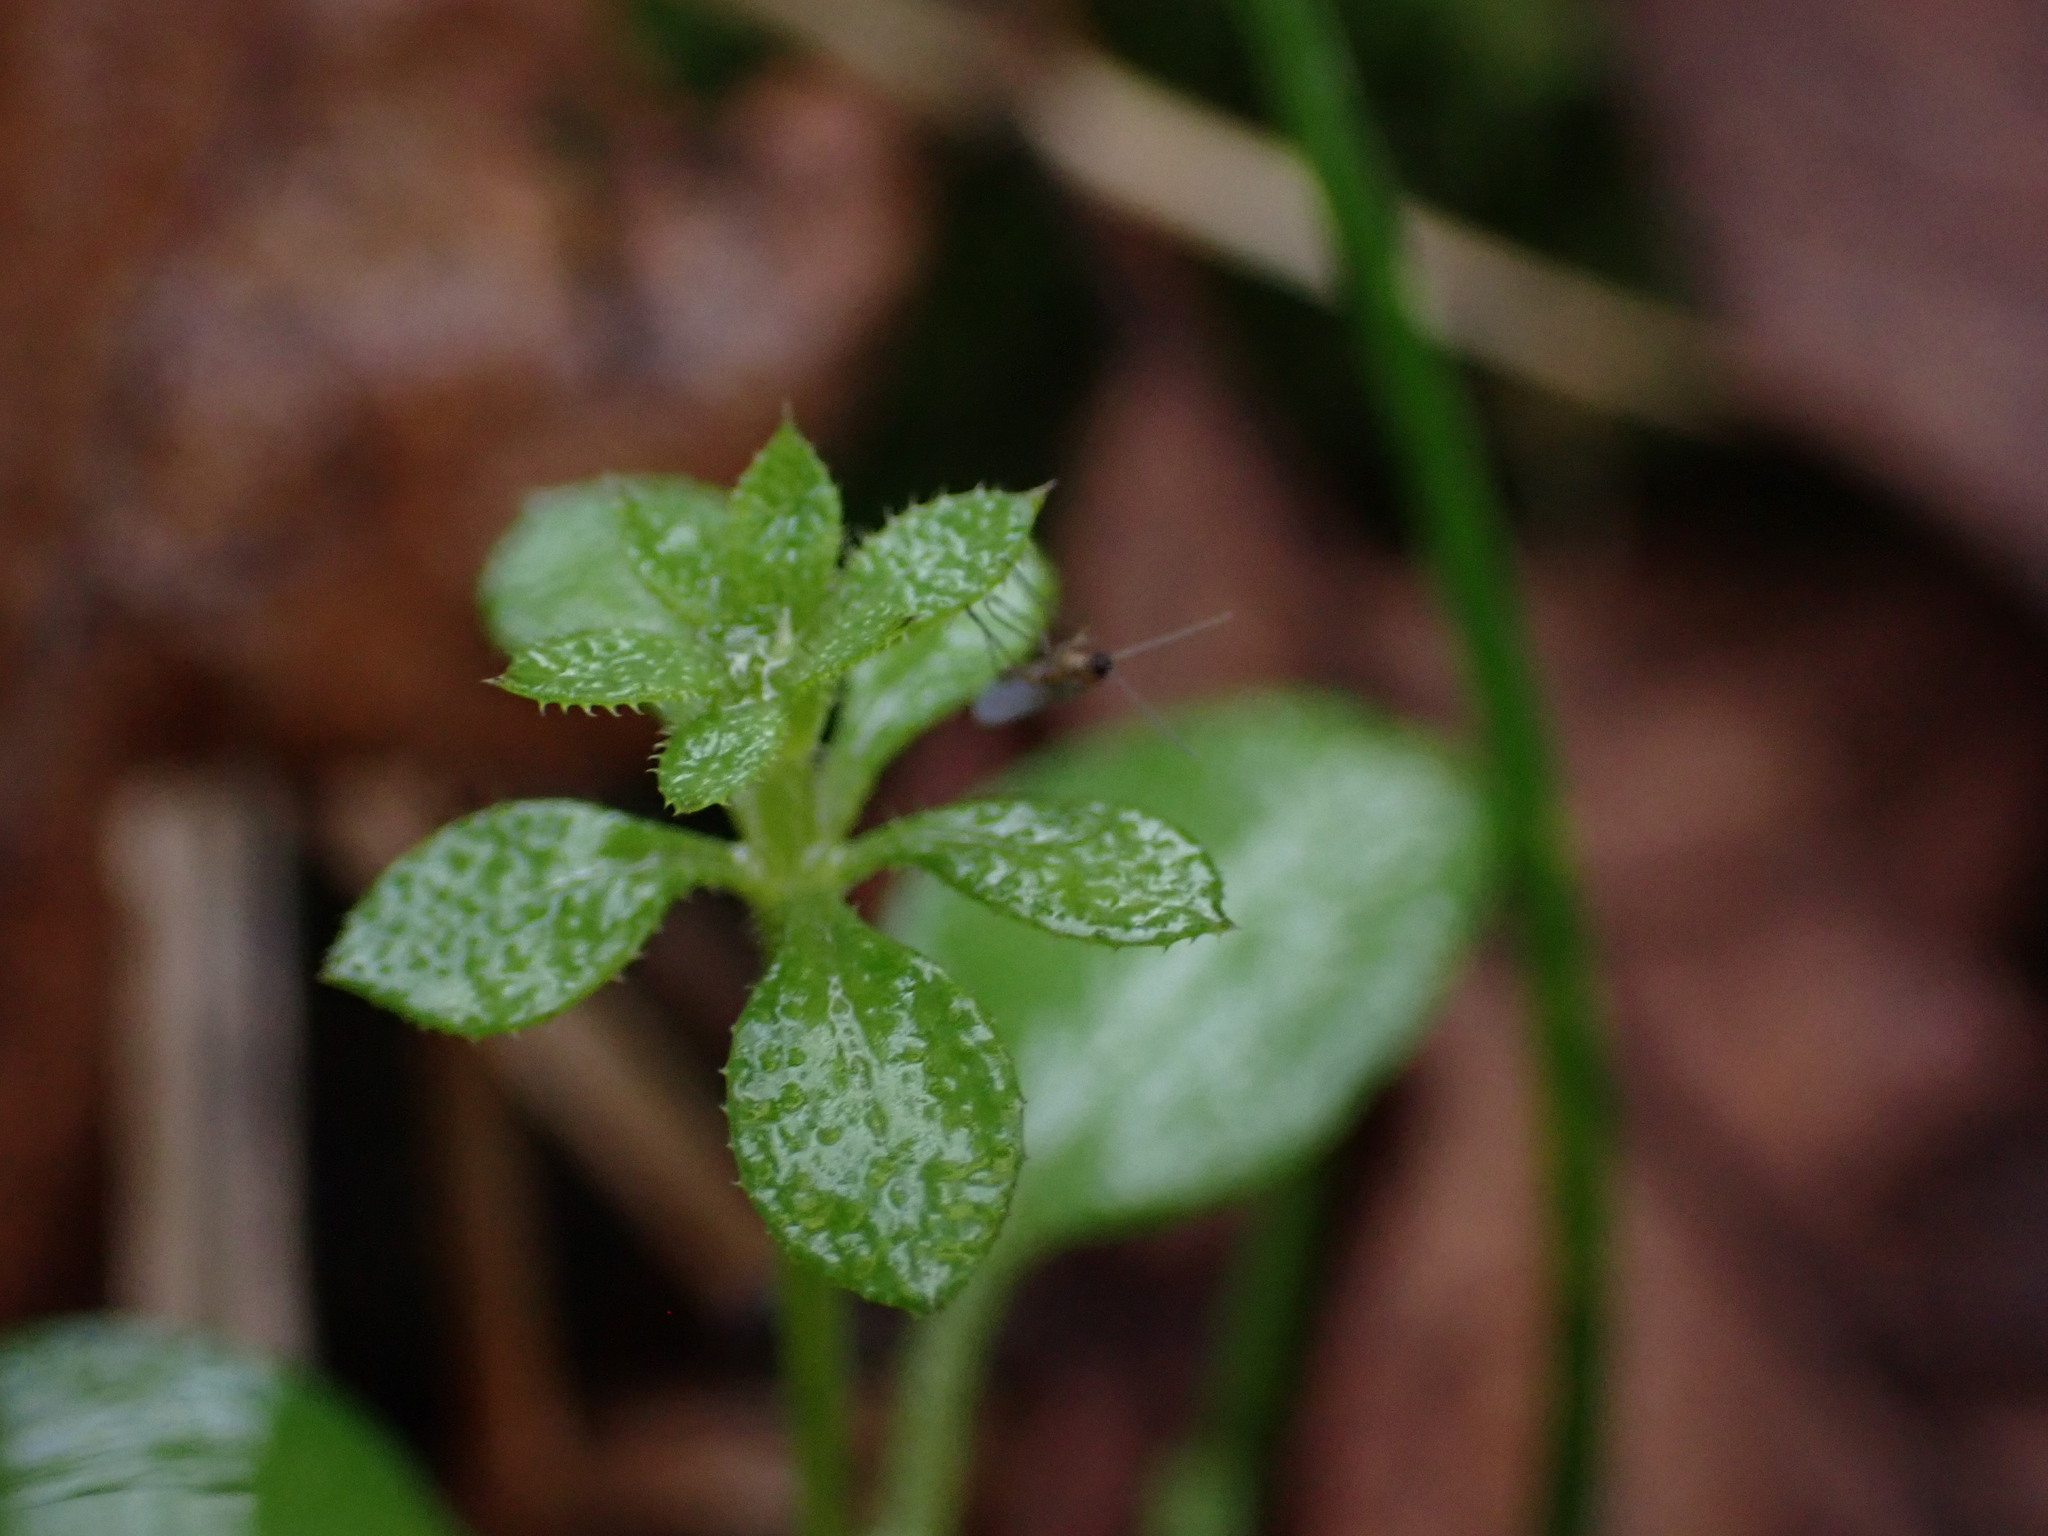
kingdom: Plantae
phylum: Tracheophyta
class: Magnoliopsida
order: Gentianales
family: Rubiaceae
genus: Galium
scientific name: Galium aparine
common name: Cleavers
